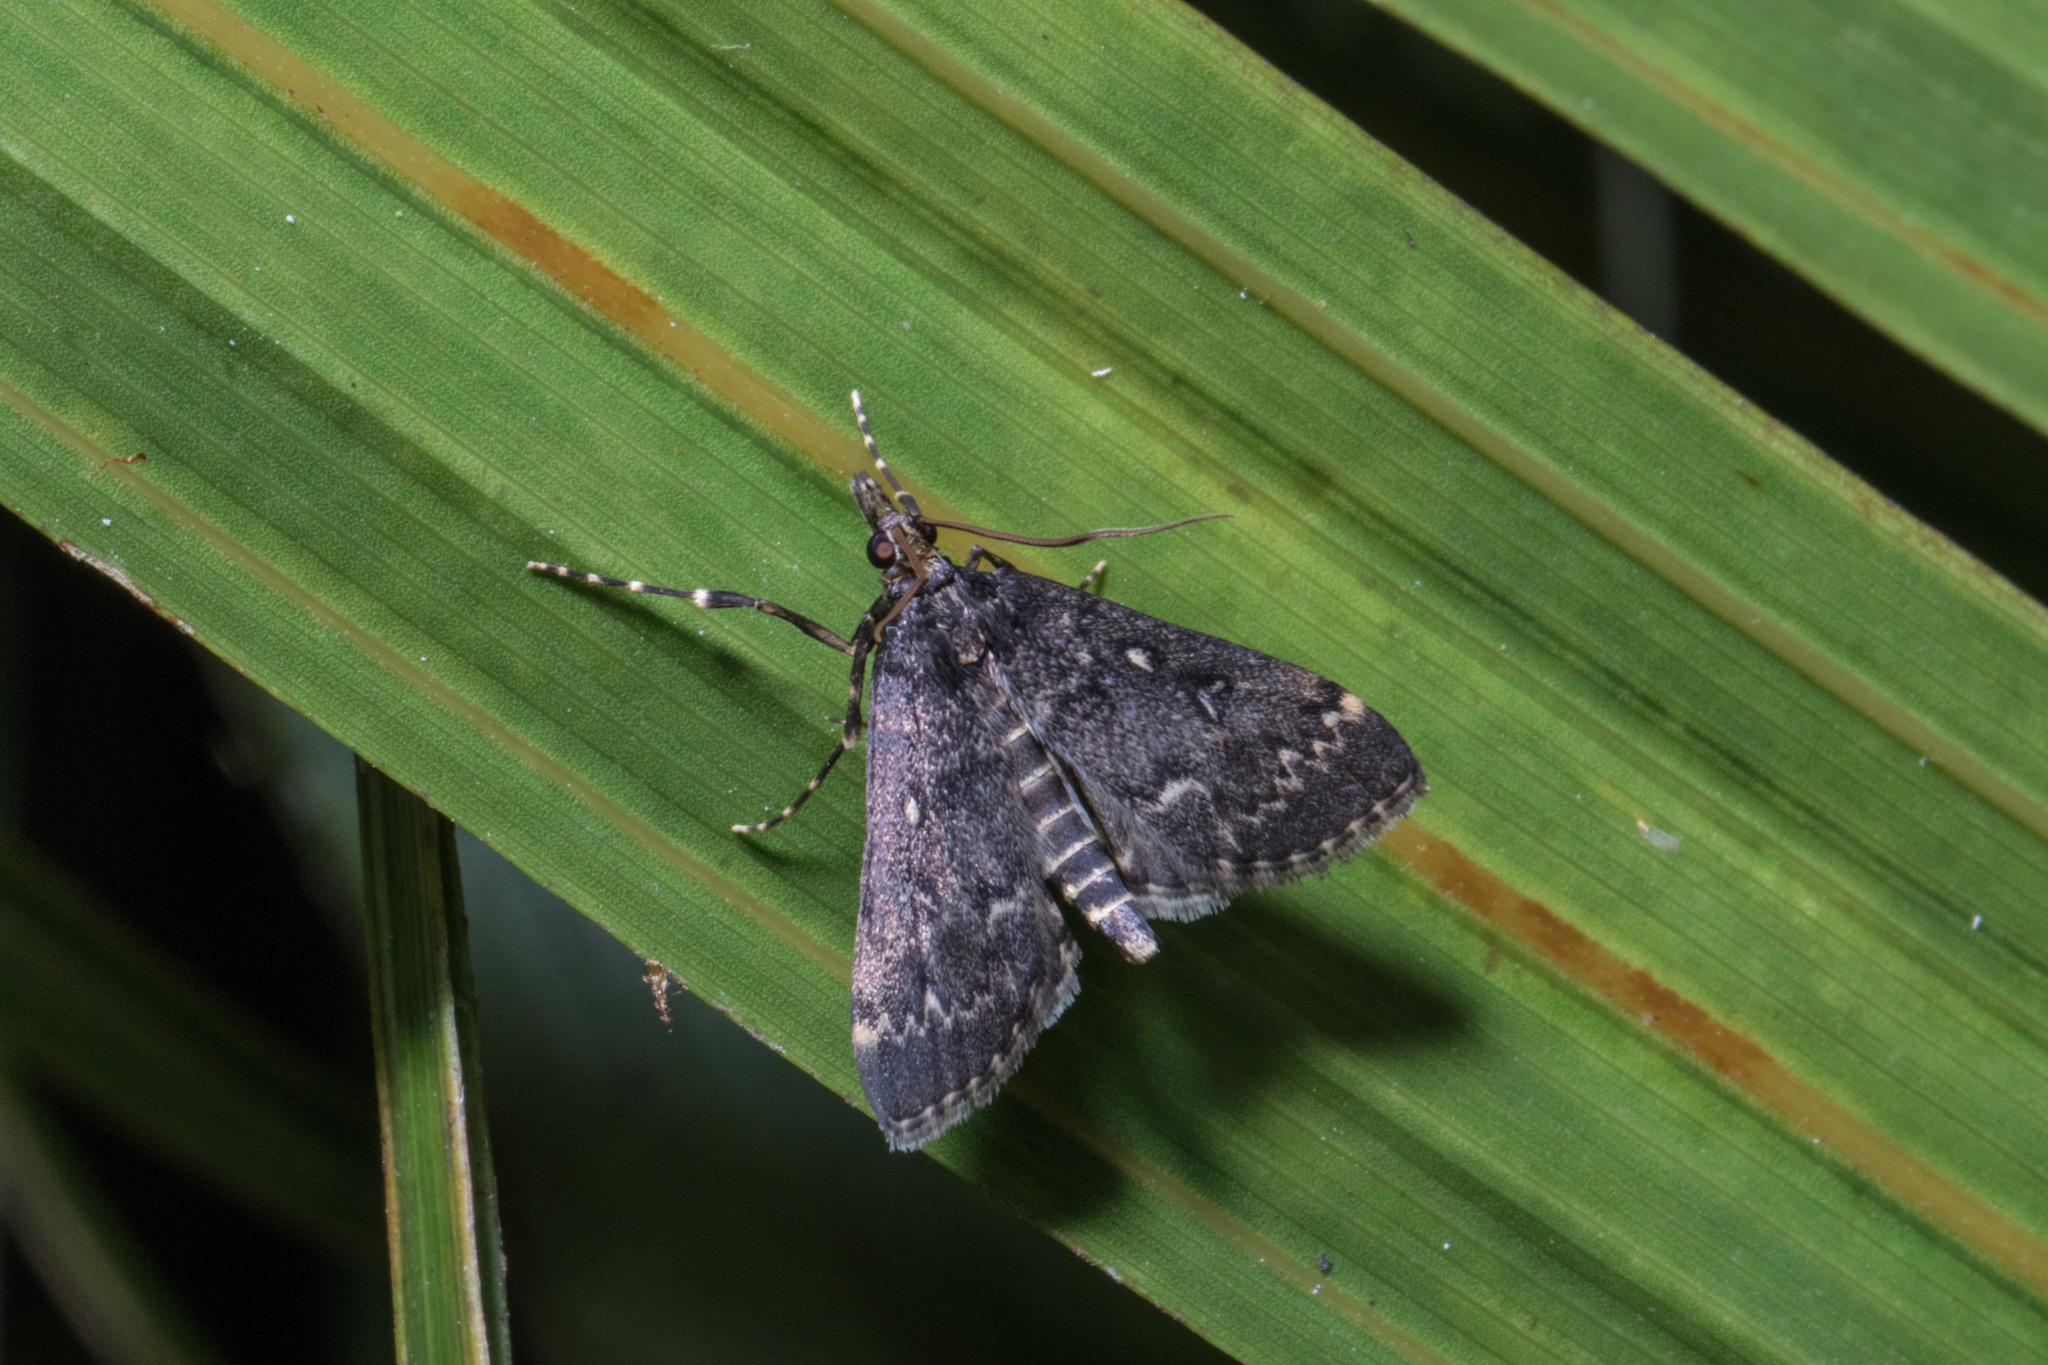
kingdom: Animalia
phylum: Arthropoda
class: Insecta
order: Lepidoptera
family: Crambidae
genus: Loxostege
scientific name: Loxostege Proternia philocapna
